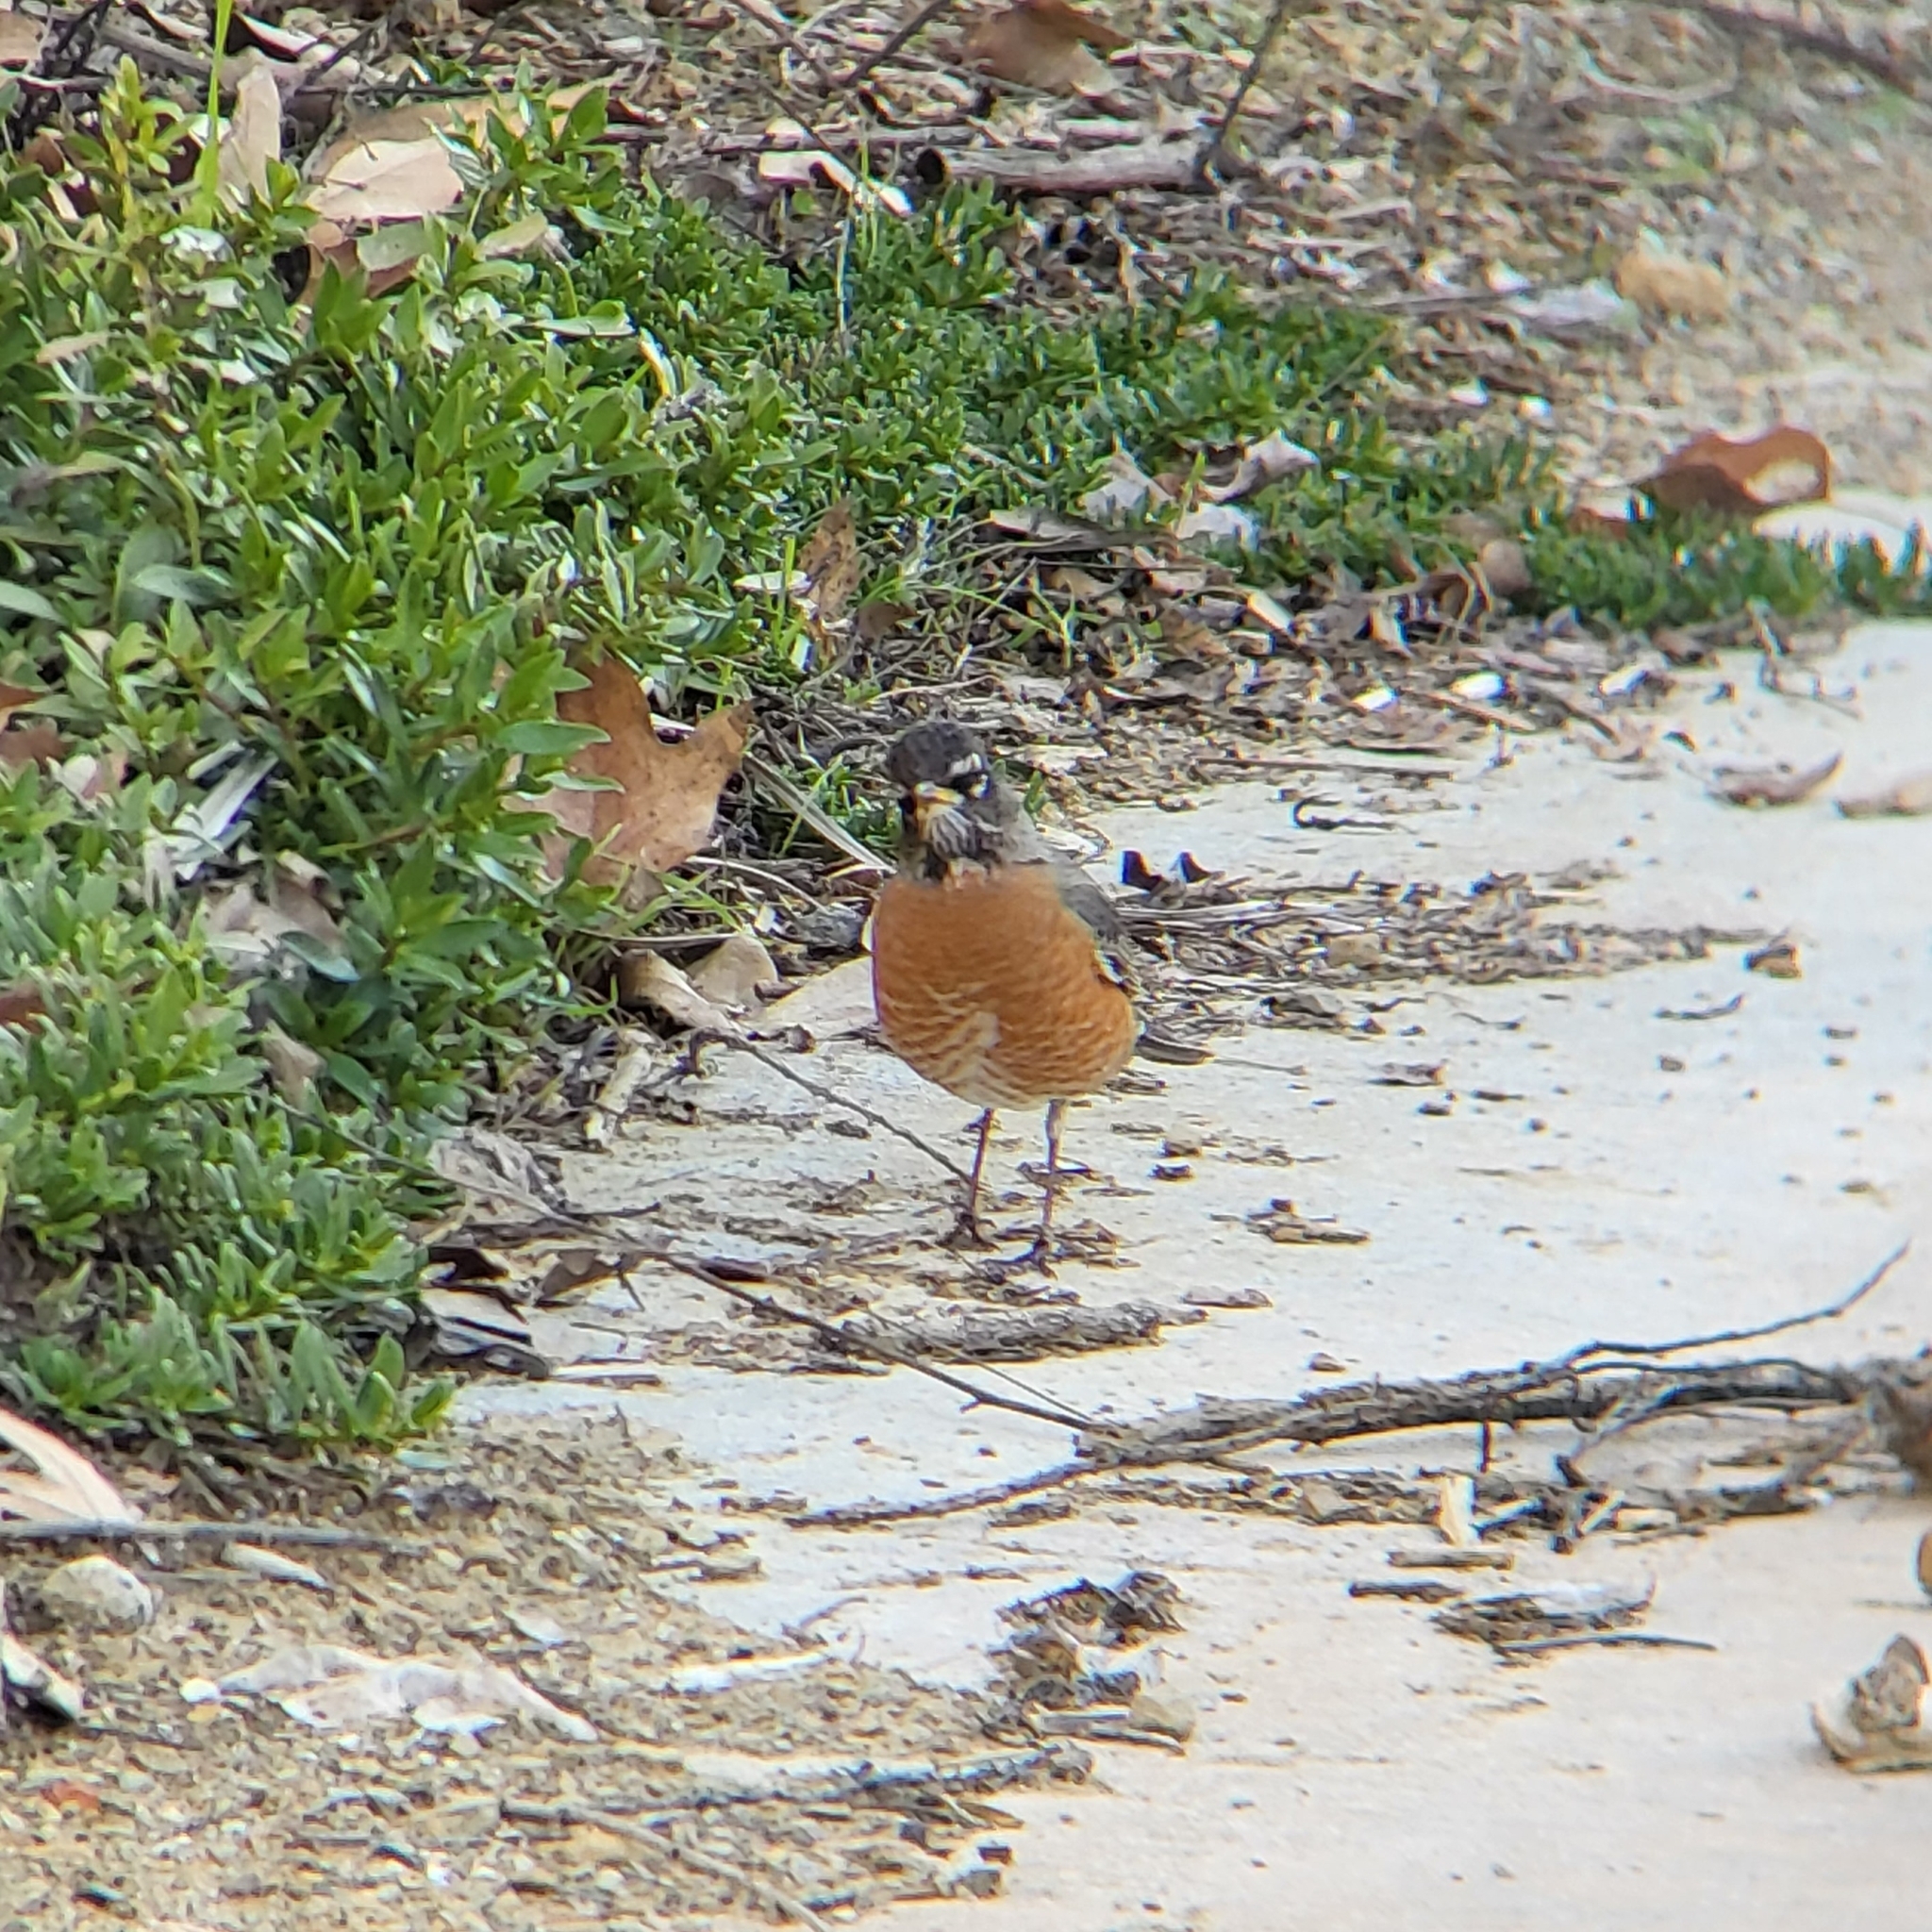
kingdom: Animalia
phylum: Chordata
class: Aves
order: Passeriformes
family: Turdidae
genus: Turdus
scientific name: Turdus migratorius
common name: American robin
